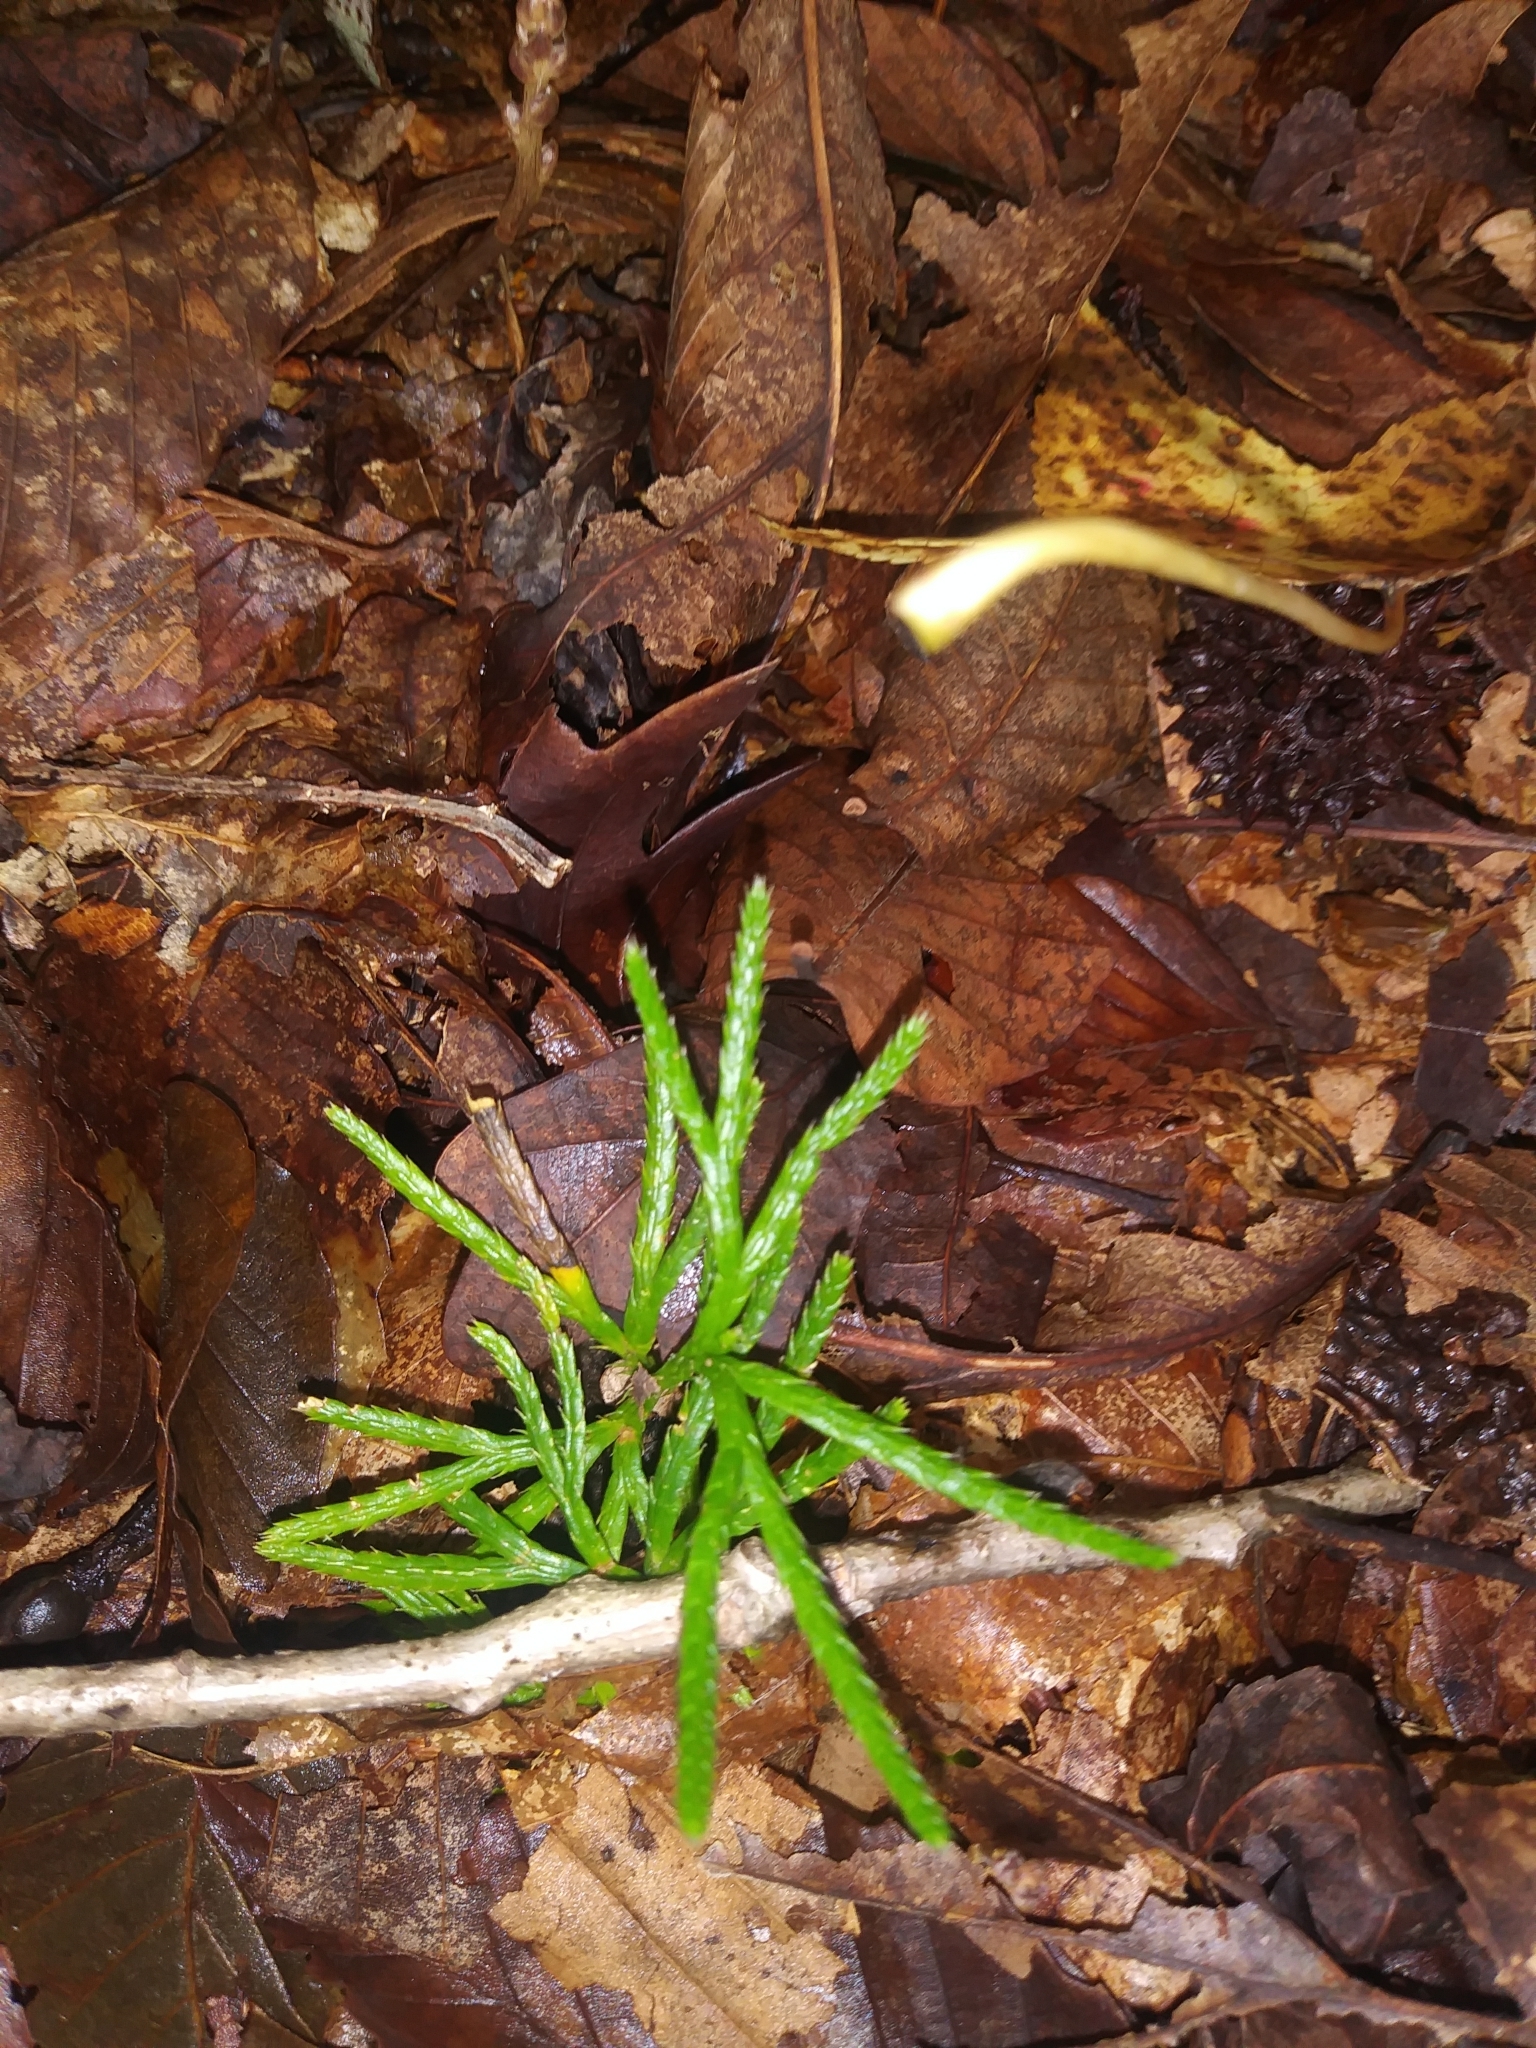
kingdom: Plantae
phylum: Tracheophyta
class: Lycopodiopsida
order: Lycopodiales
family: Lycopodiaceae
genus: Diphasiastrum
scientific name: Diphasiastrum digitatum
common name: Southern running-pine
